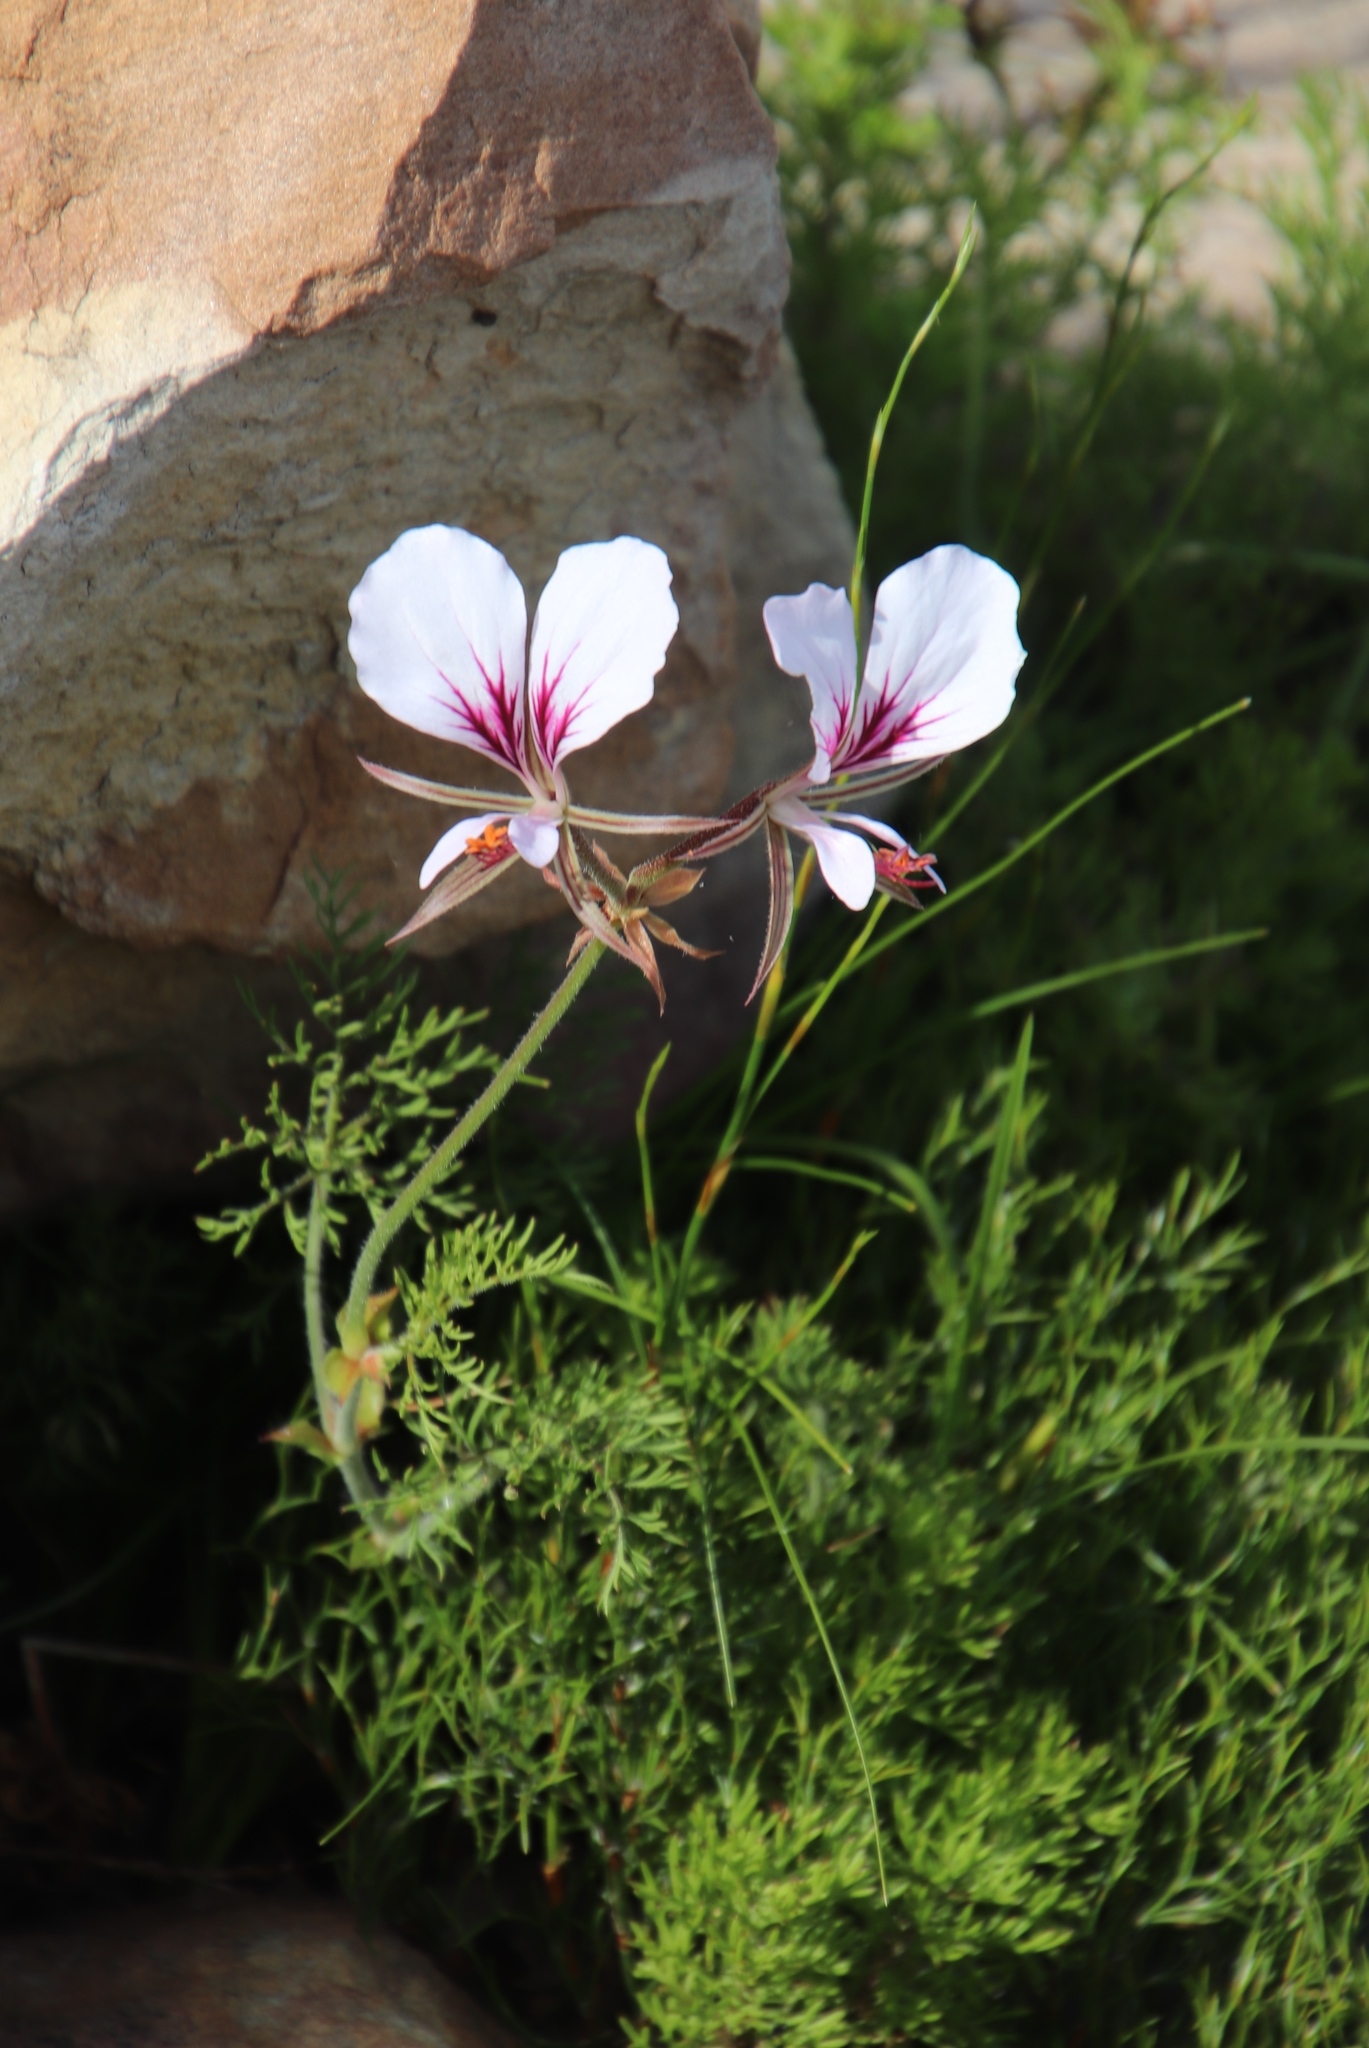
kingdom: Plantae
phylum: Tracheophyta
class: Magnoliopsida
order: Geraniales
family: Geraniaceae
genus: Pelargonium
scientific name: Pelargonium myrrhifolium
